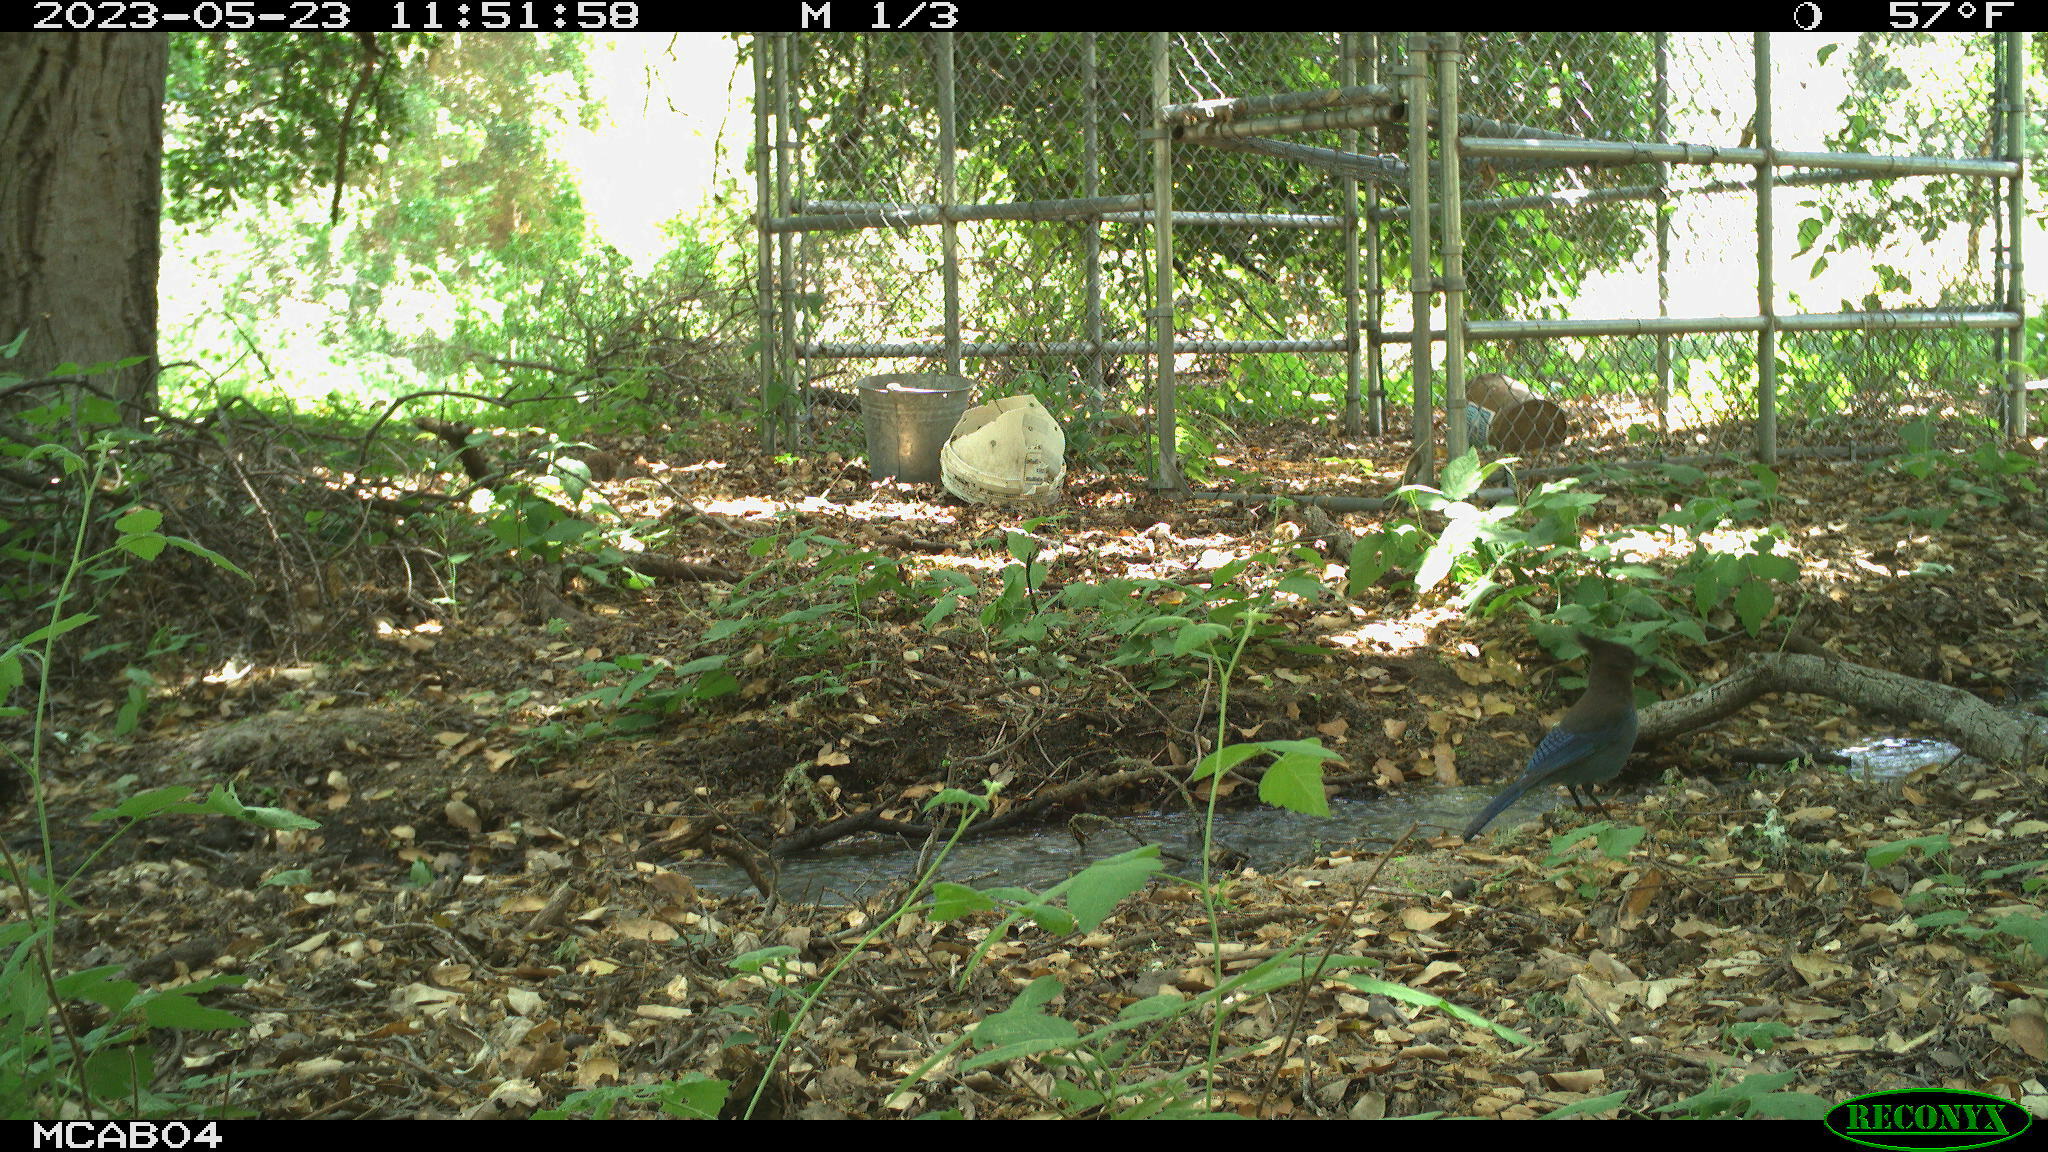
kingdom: Animalia
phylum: Chordata
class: Aves
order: Passeriformes
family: Corvidae
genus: Cyanocitta
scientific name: Cyanocitta stelleri
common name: Steller's jay
